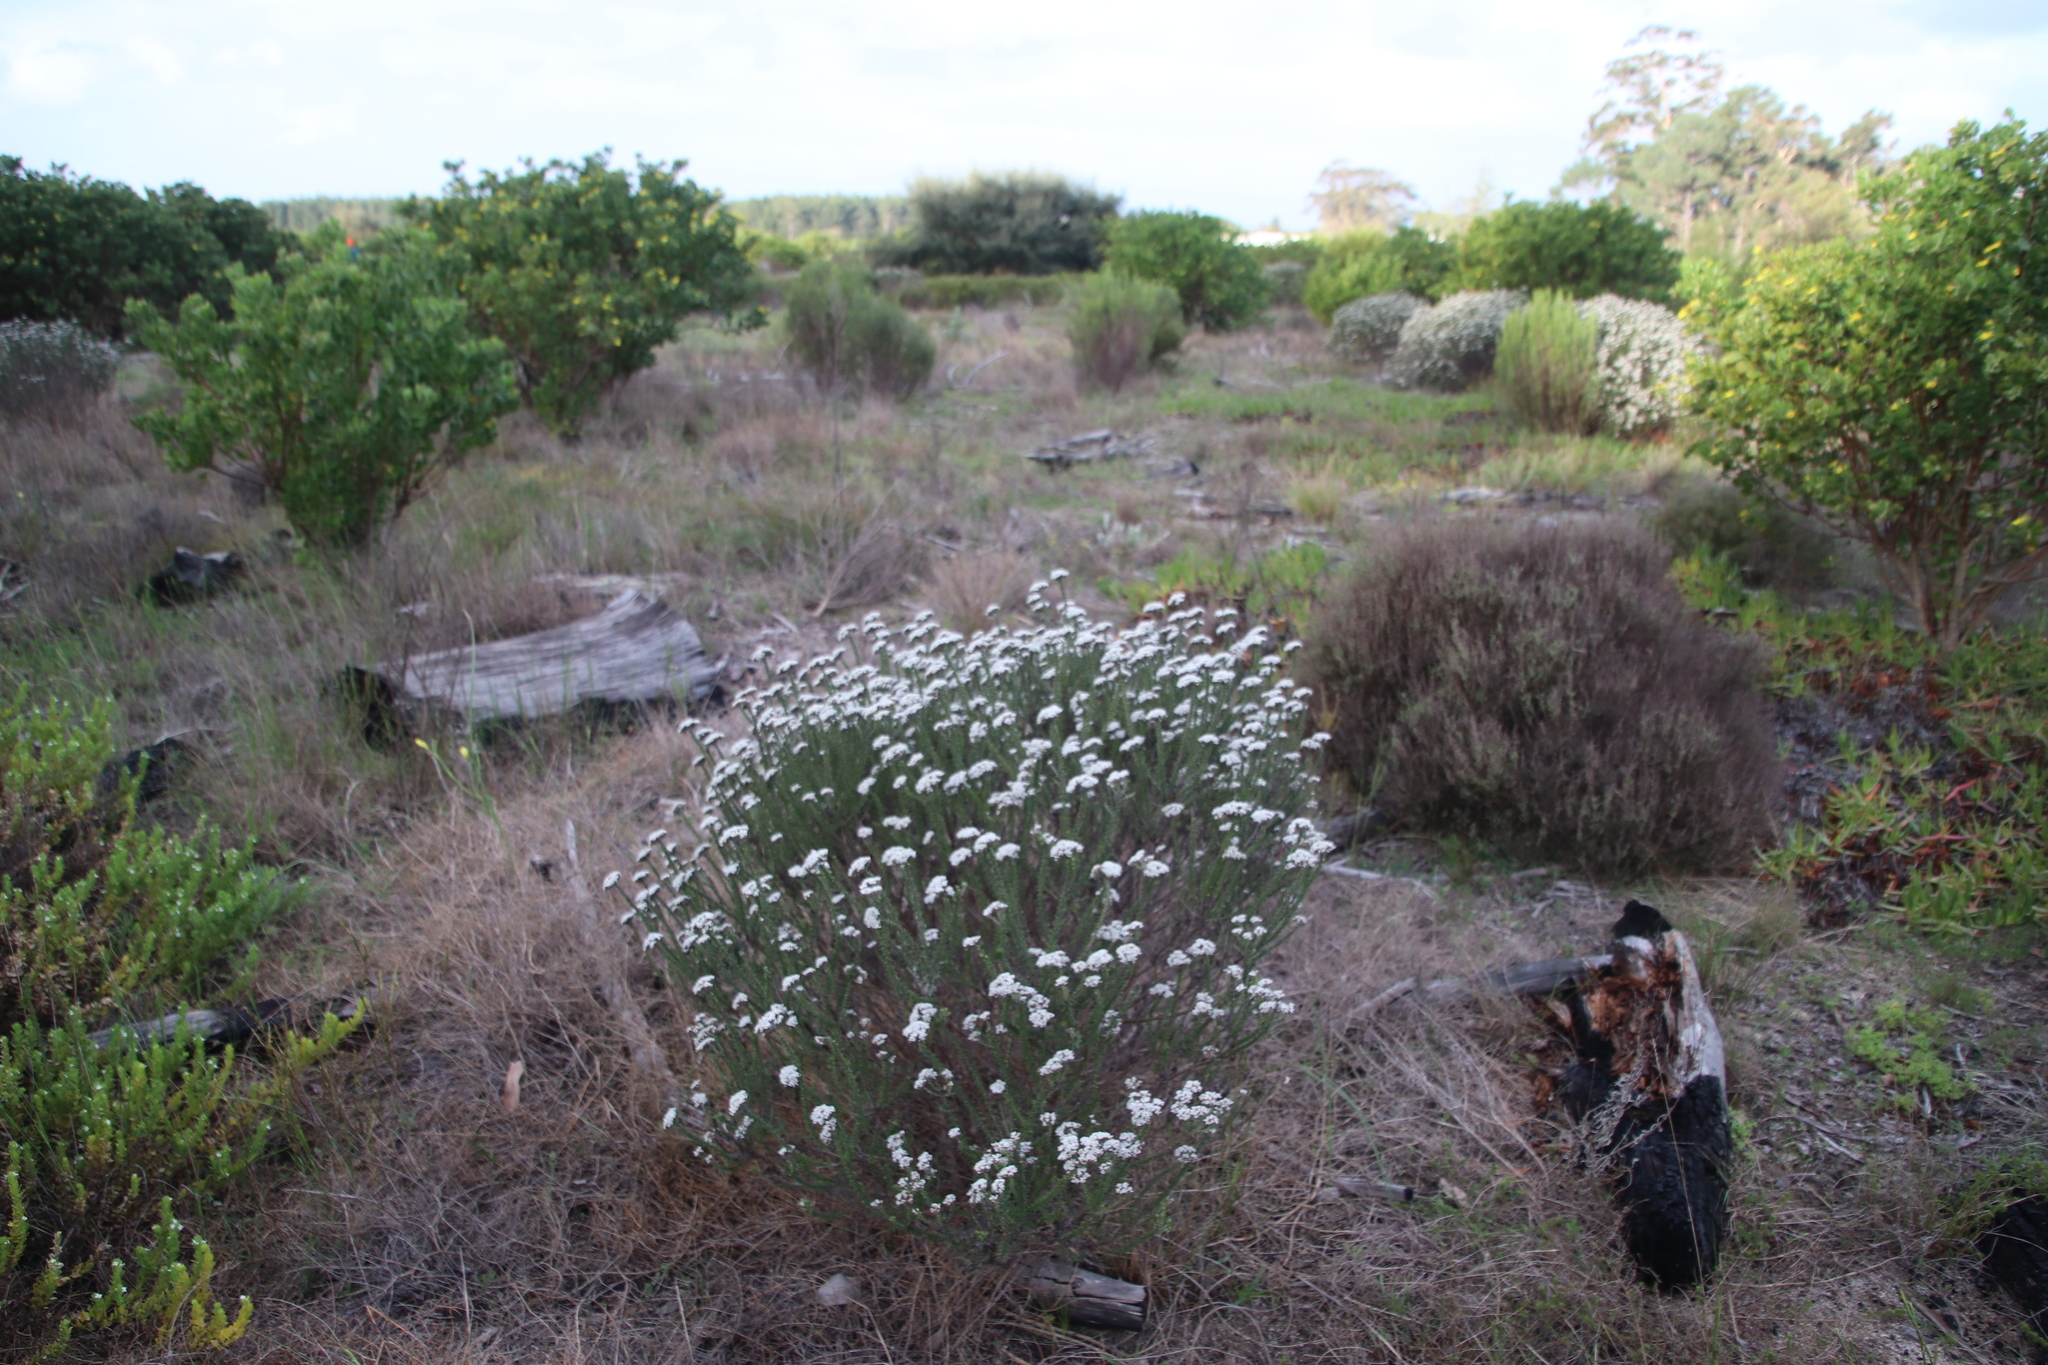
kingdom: Plantae
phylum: Tracheophyta
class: Magnoliopsida
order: Asterales
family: Asteraceae
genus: Metalasia
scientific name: Metalasia densa
